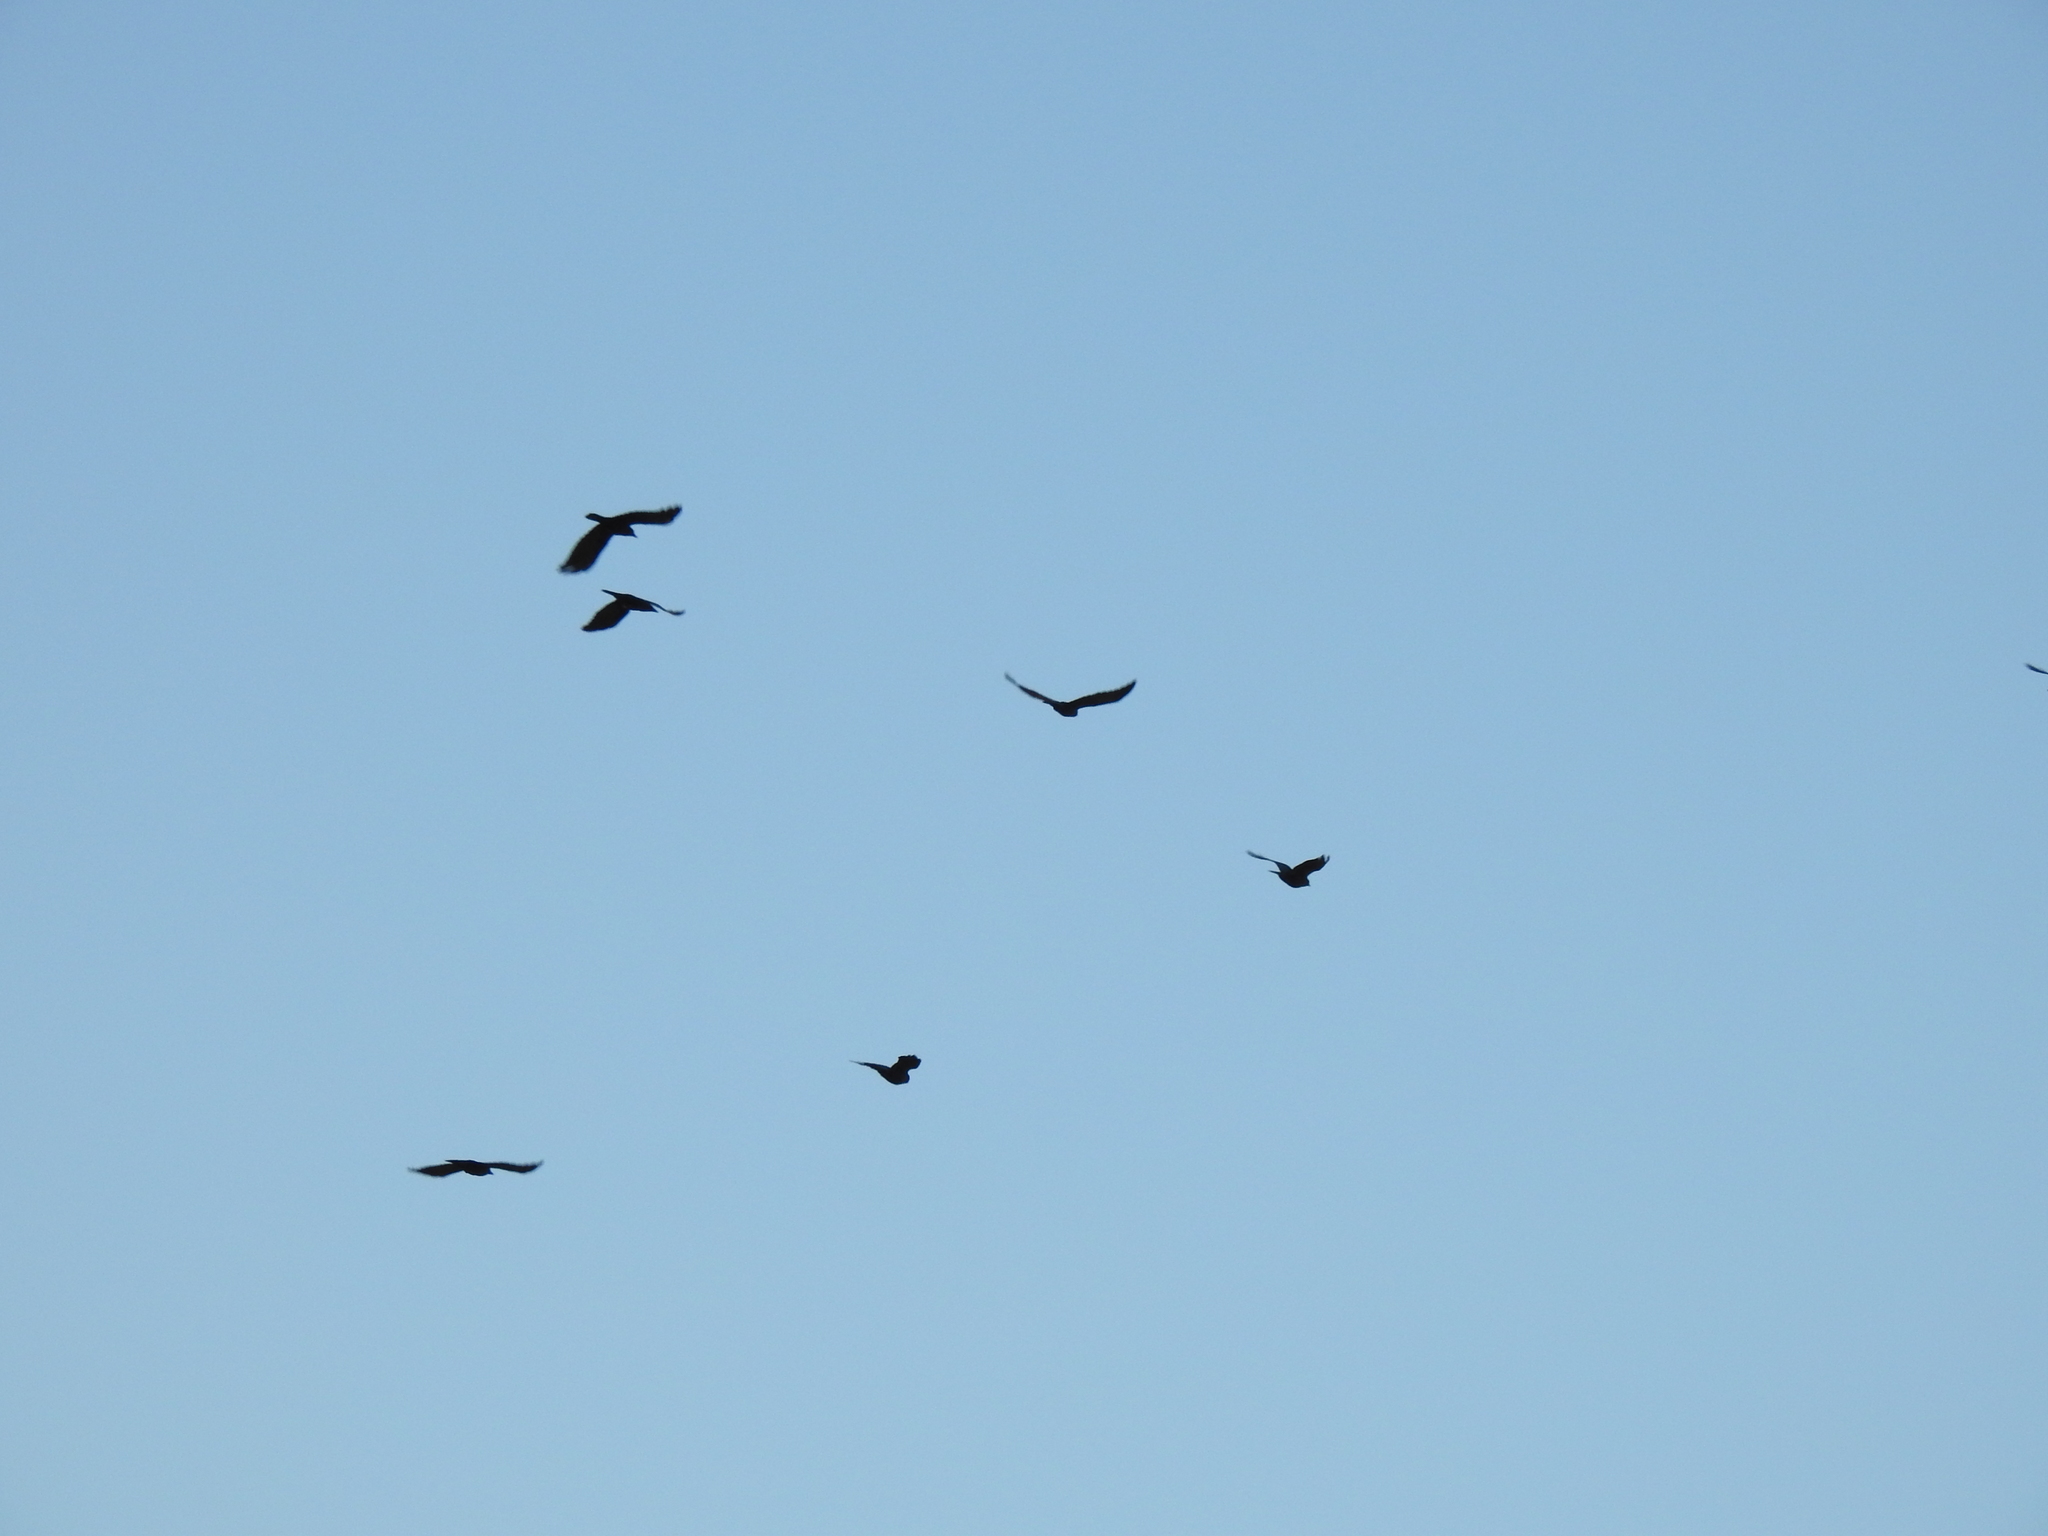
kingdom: Animalia
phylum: Chordata
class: Aves
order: Passeriformes
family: Corvidae
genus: Corvus
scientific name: Corvus brachyrhynchos
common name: American crow
